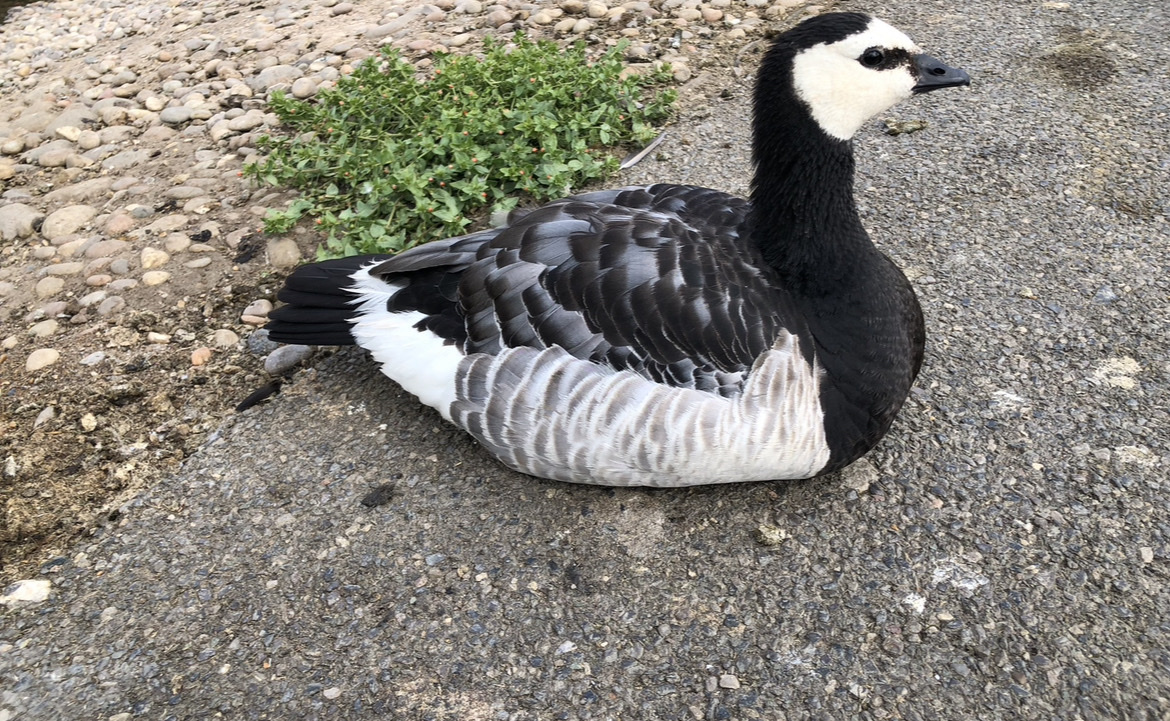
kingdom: Animalia
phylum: Chordata
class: Aves
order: Anseriformes
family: Anatidae
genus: Branta
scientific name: Branta leucopsis
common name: Barnacle goose
